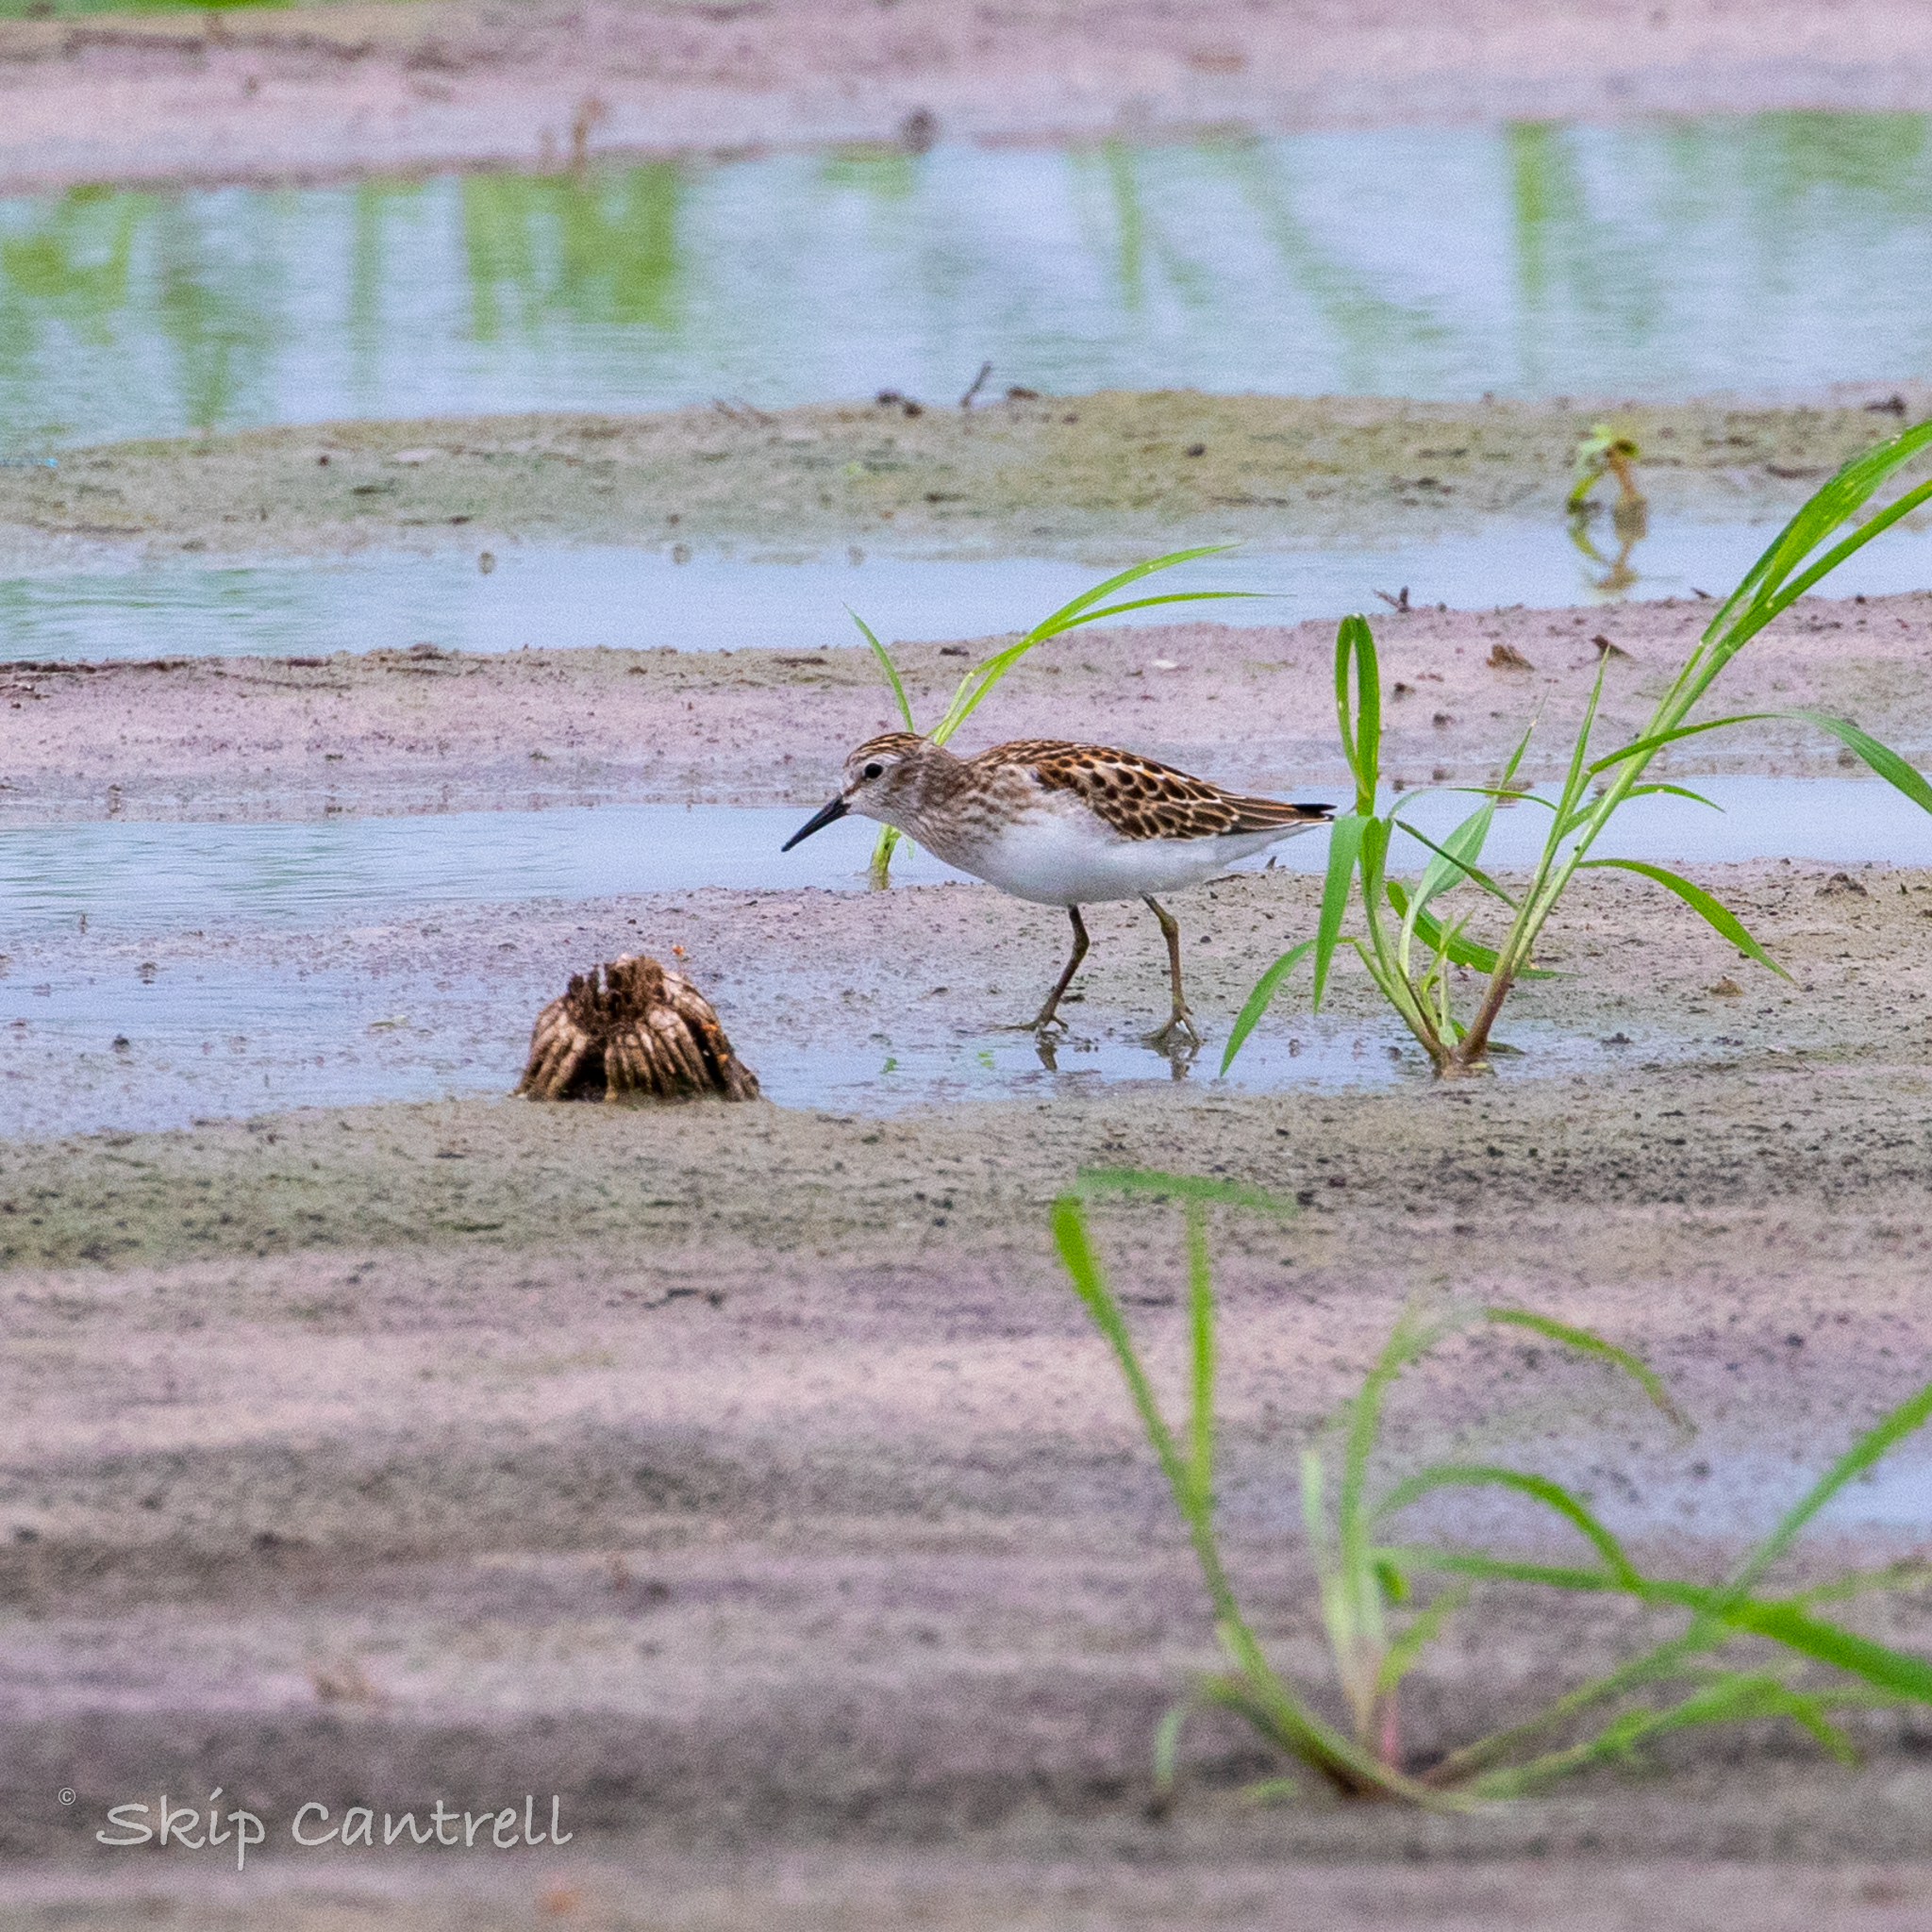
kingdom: Animalia
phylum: Chordata
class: Aves
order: Charadriiformes
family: Scolopacidae
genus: Calidris
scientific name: Calidris minutilla
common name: Least sandpiper
